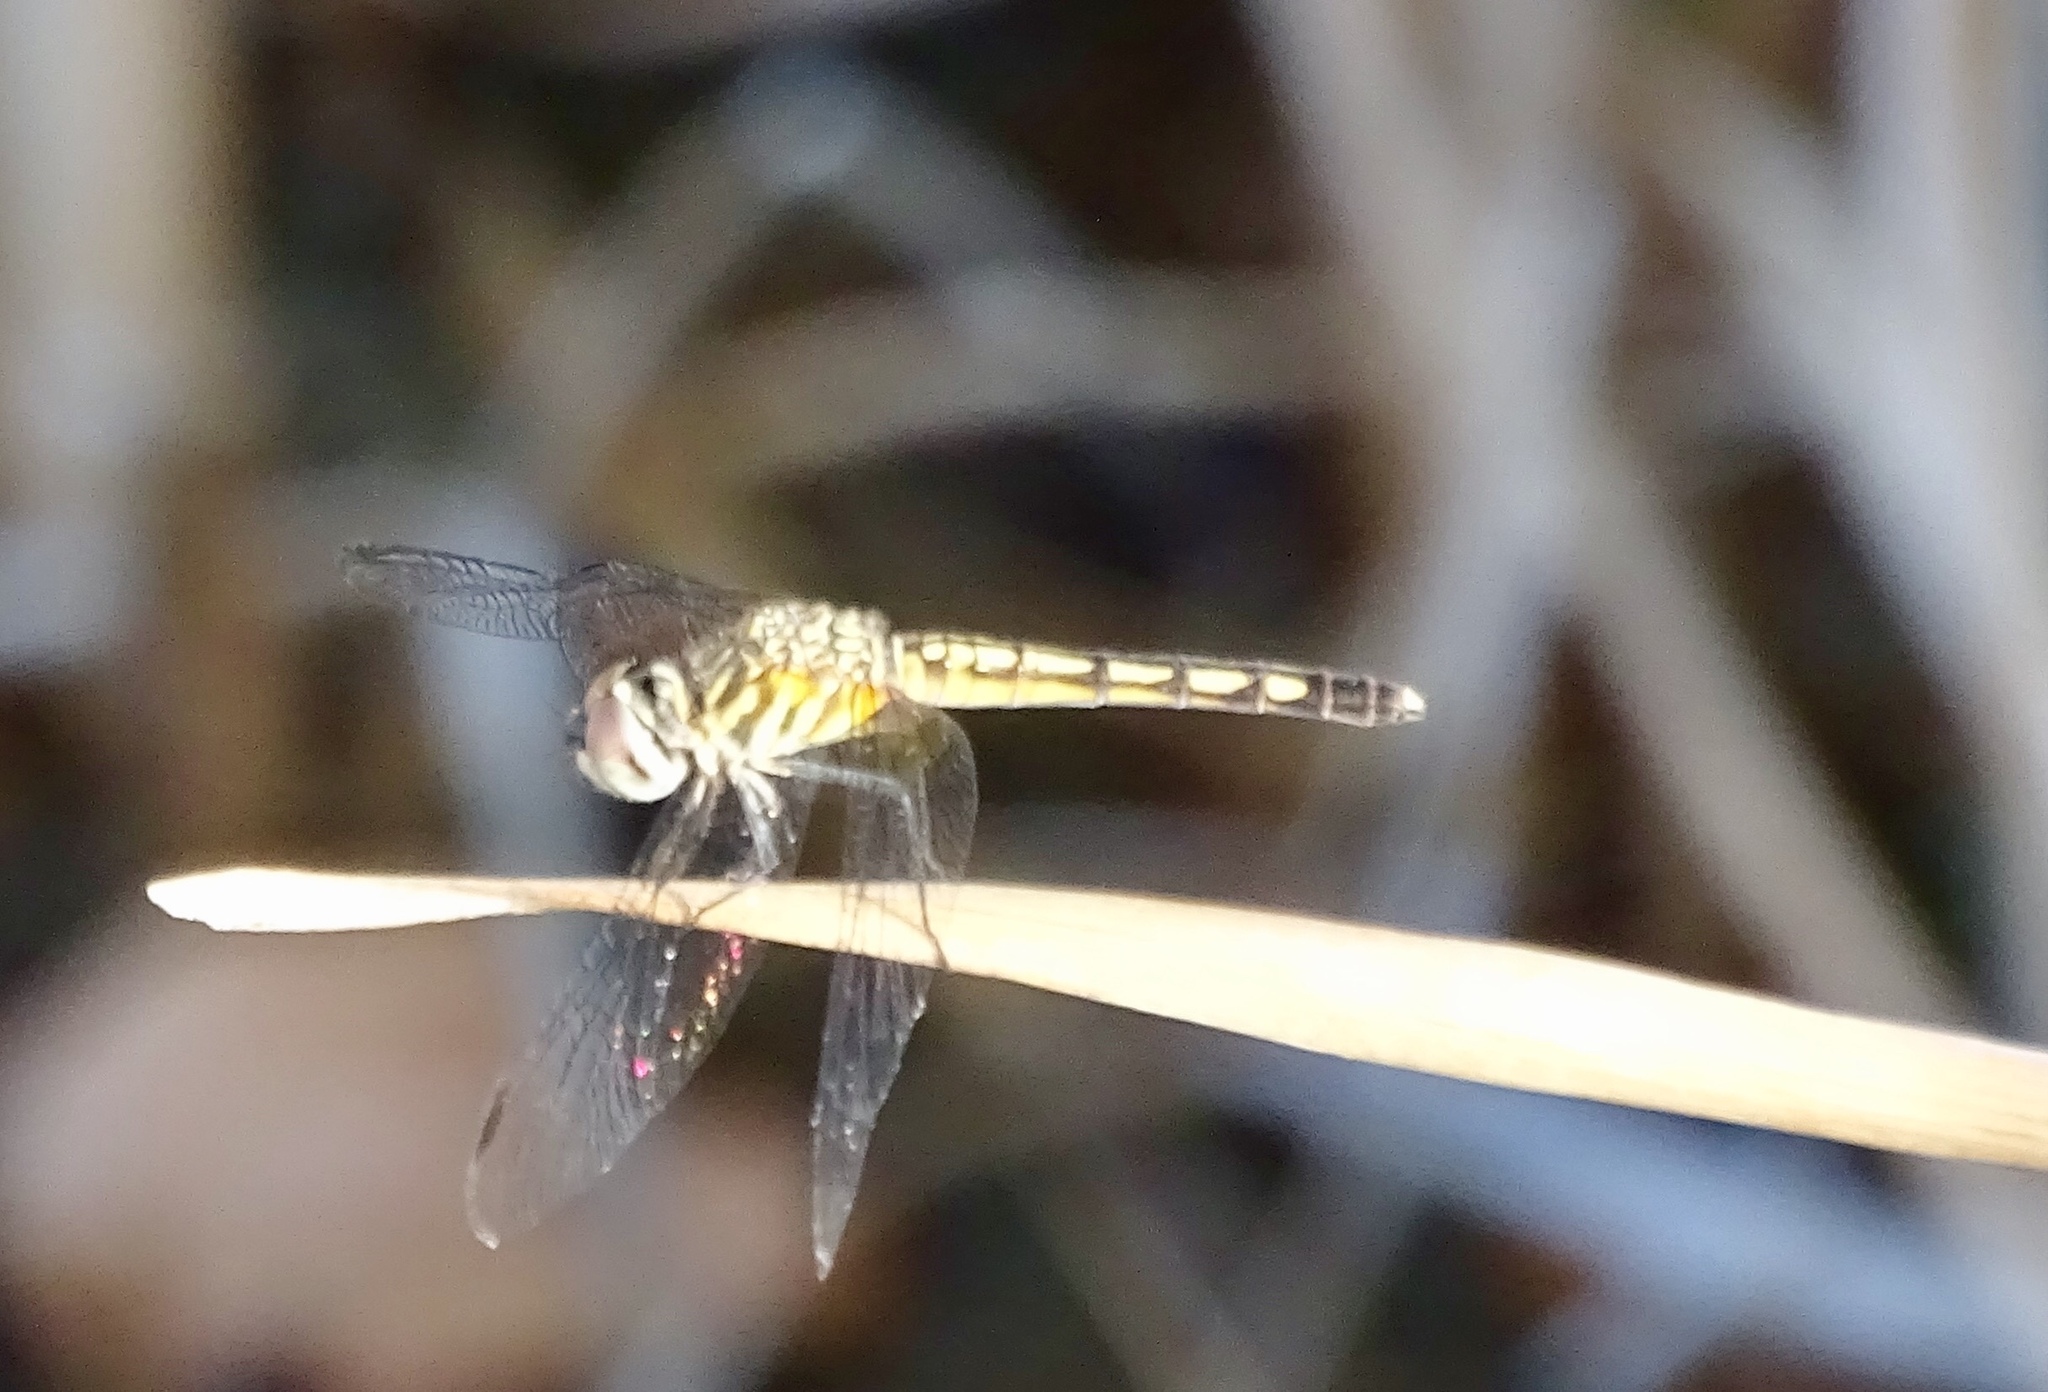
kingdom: Animalia
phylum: Arthropoda
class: Insecta
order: Odonata
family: Libellulidae
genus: Pachydiplax
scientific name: Pachydiplax longipennis
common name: Blue dasher
